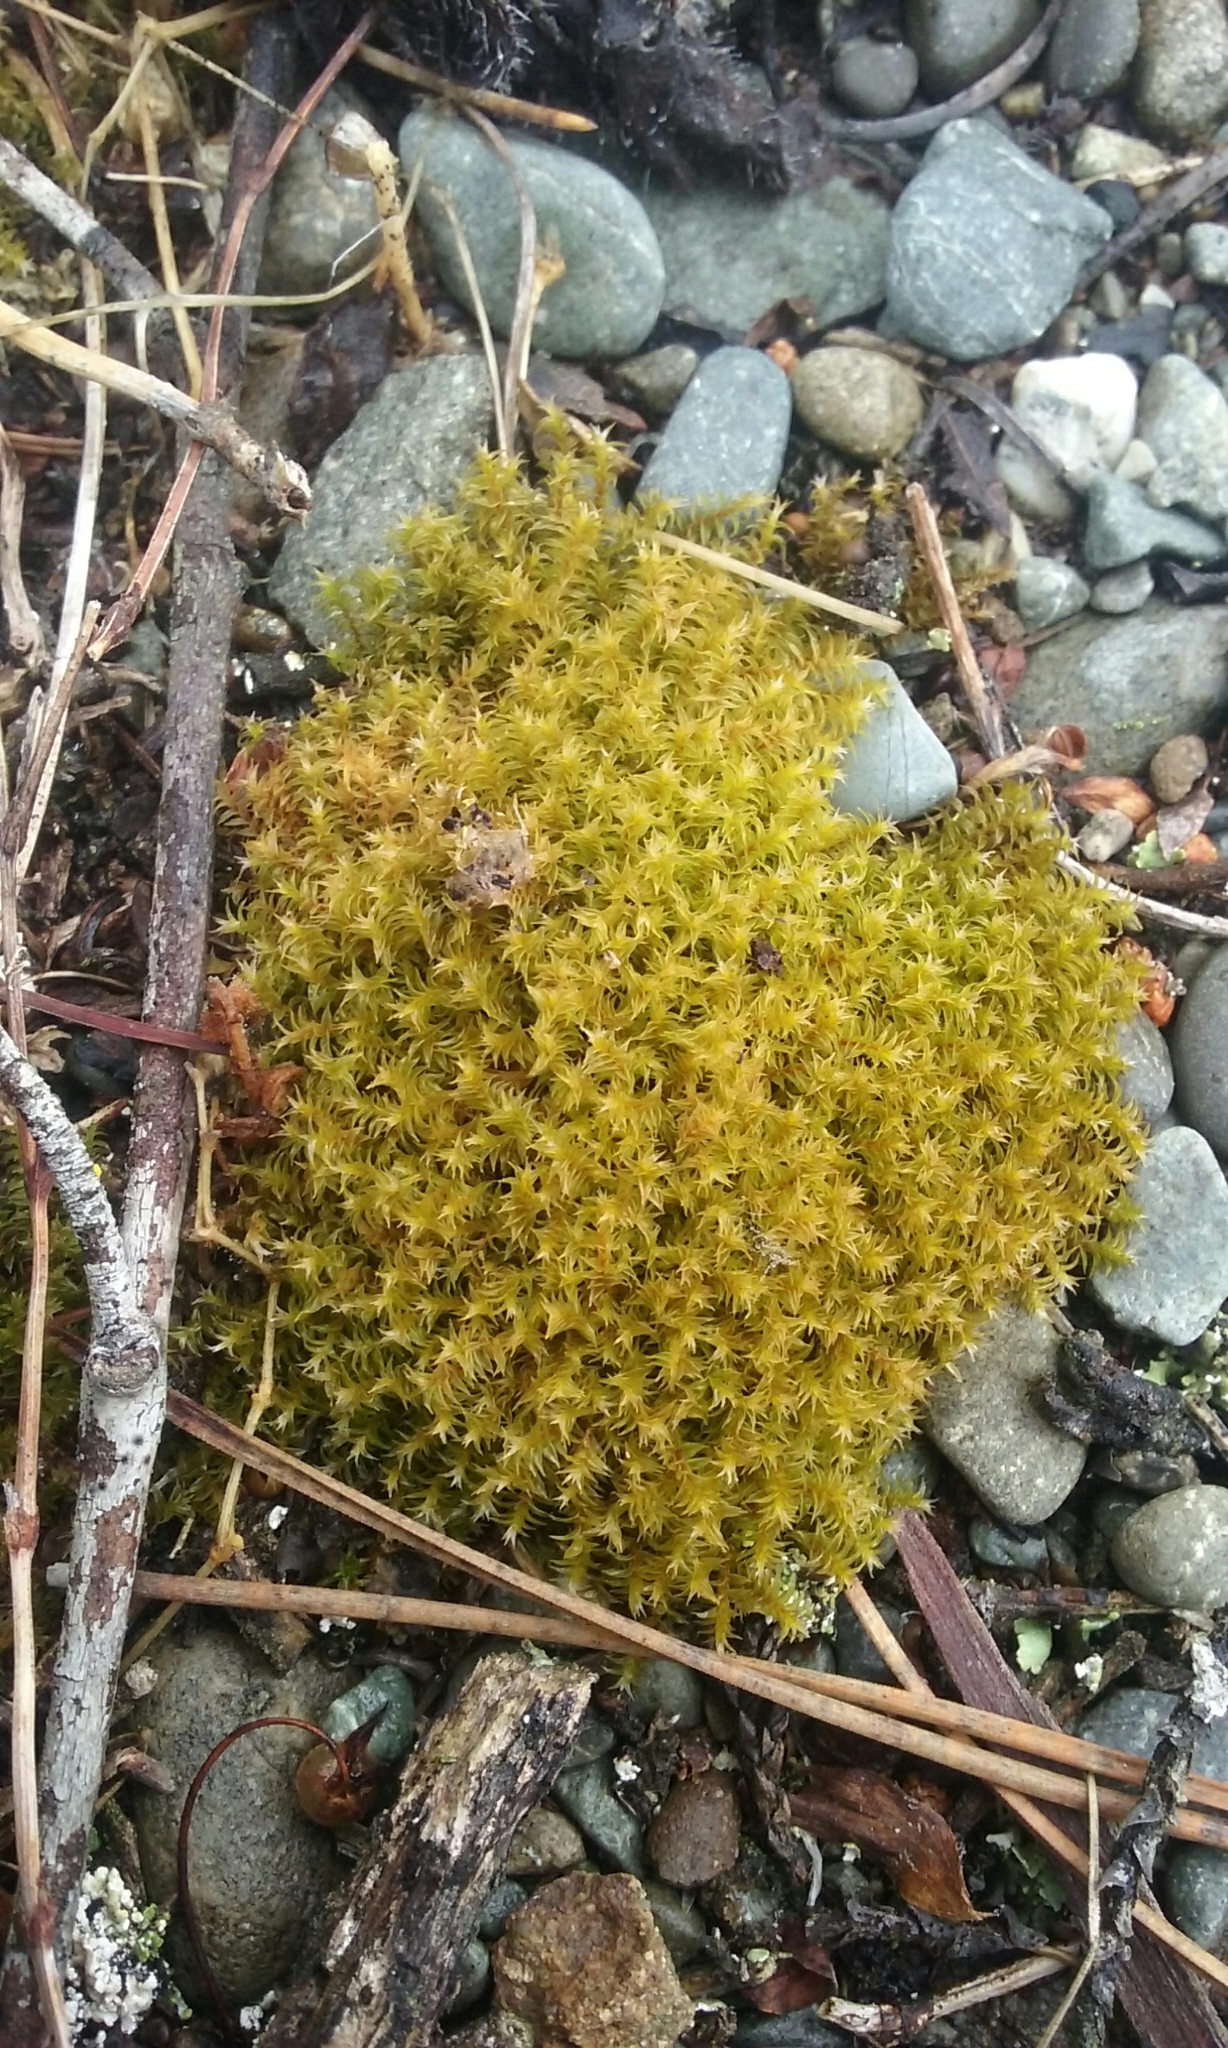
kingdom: Plantae
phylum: Bryophyta
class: Bryopsida
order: Pottiales
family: Pottiaceae
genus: Triquetrella
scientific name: Triquetrella papillata
